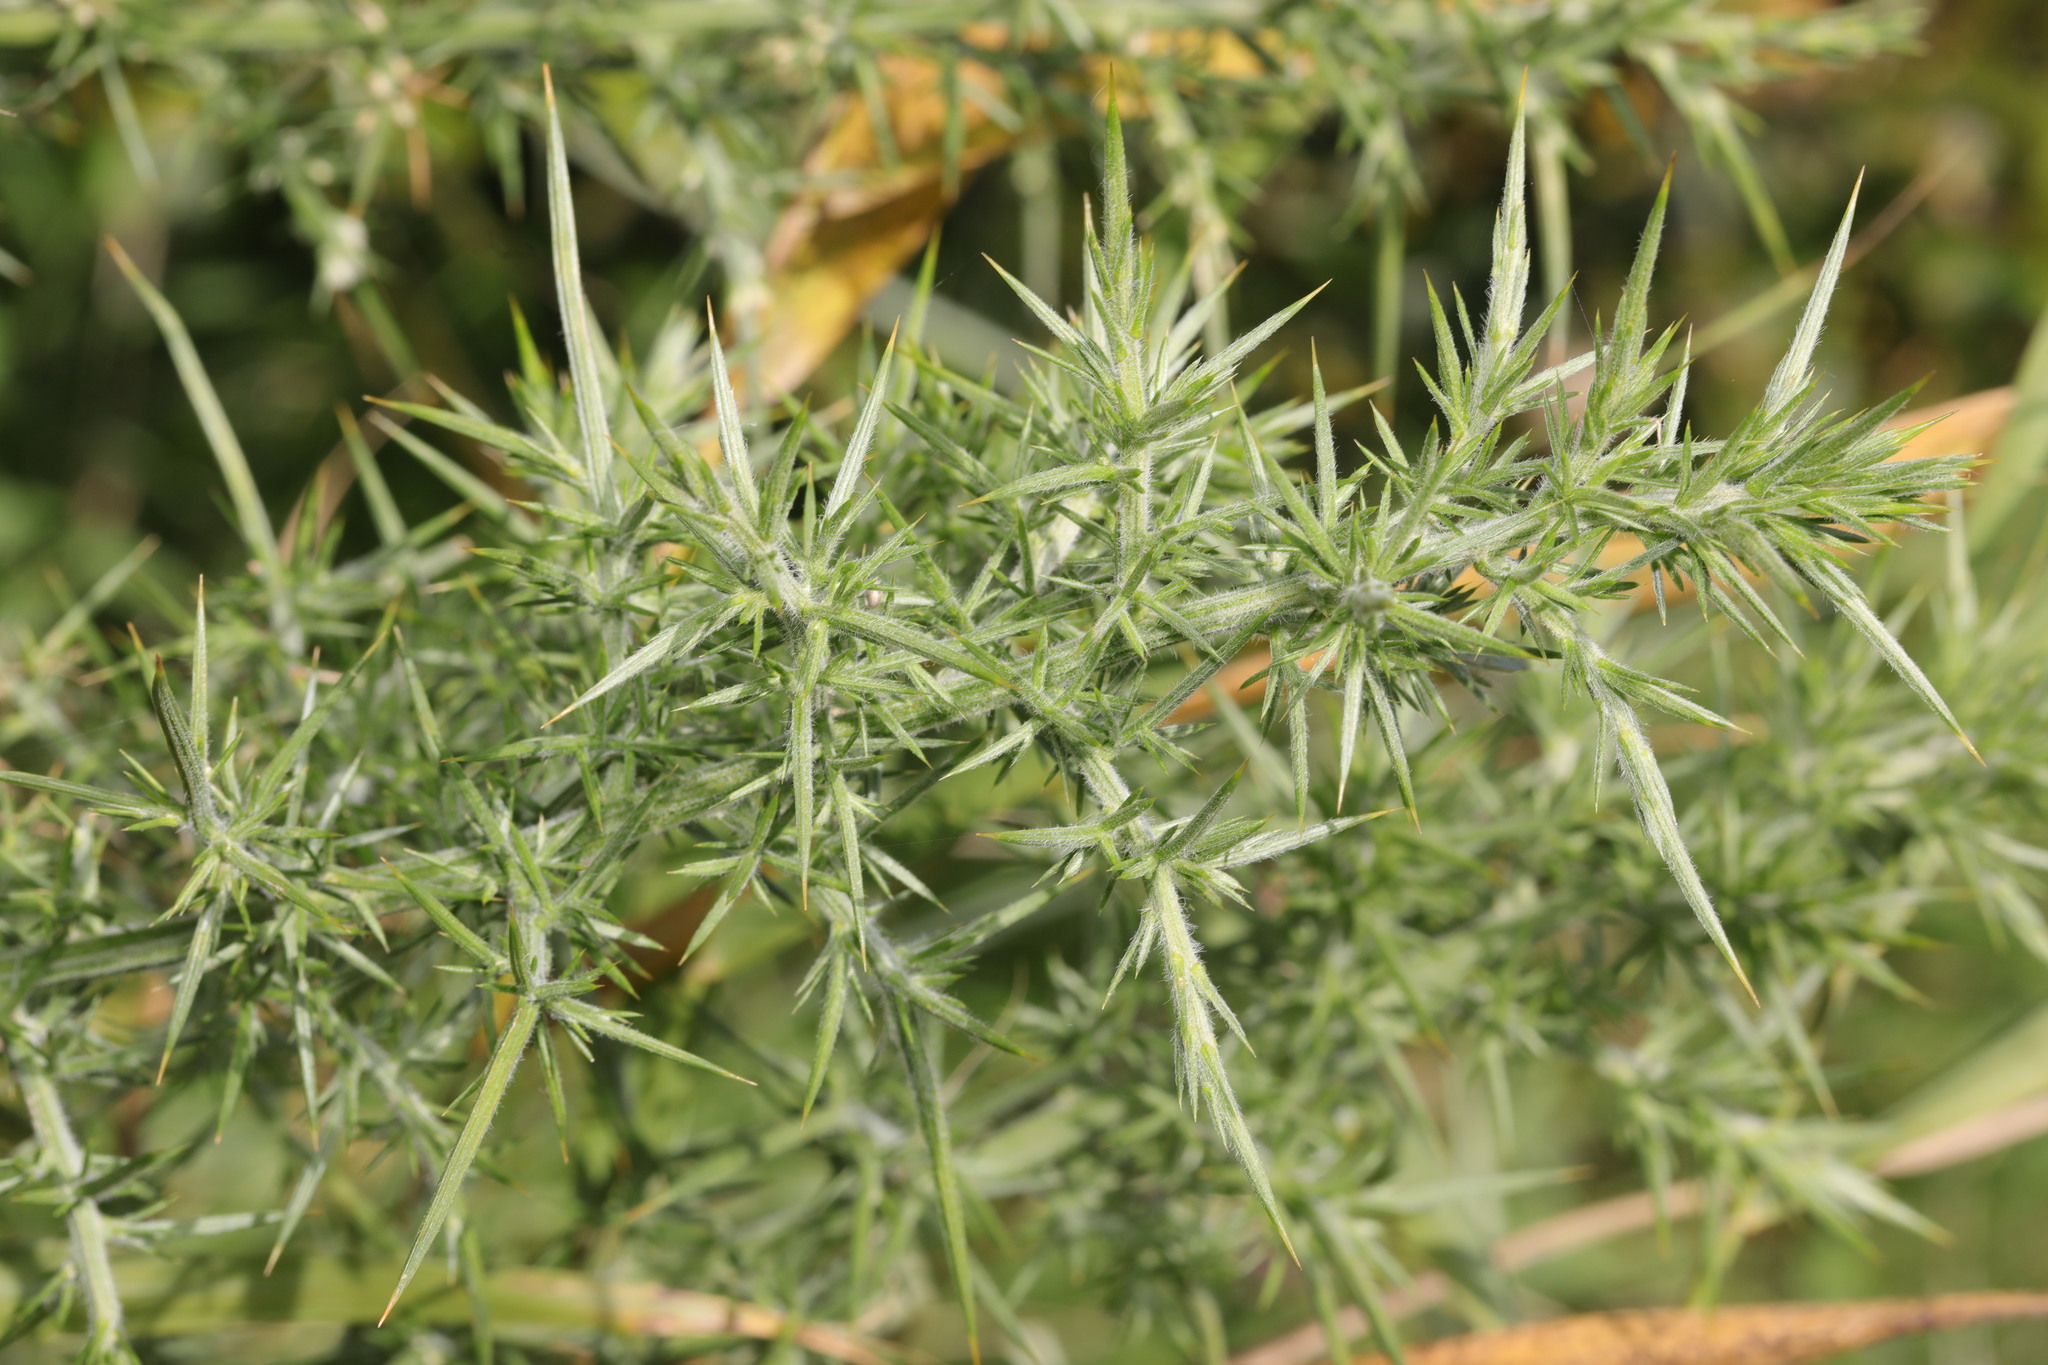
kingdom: Plantae
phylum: Tracheophyta
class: Magnoliopsida
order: Fabales
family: Fabaceae
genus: Ulex
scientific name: Ulex europaeus
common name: Common gorse
